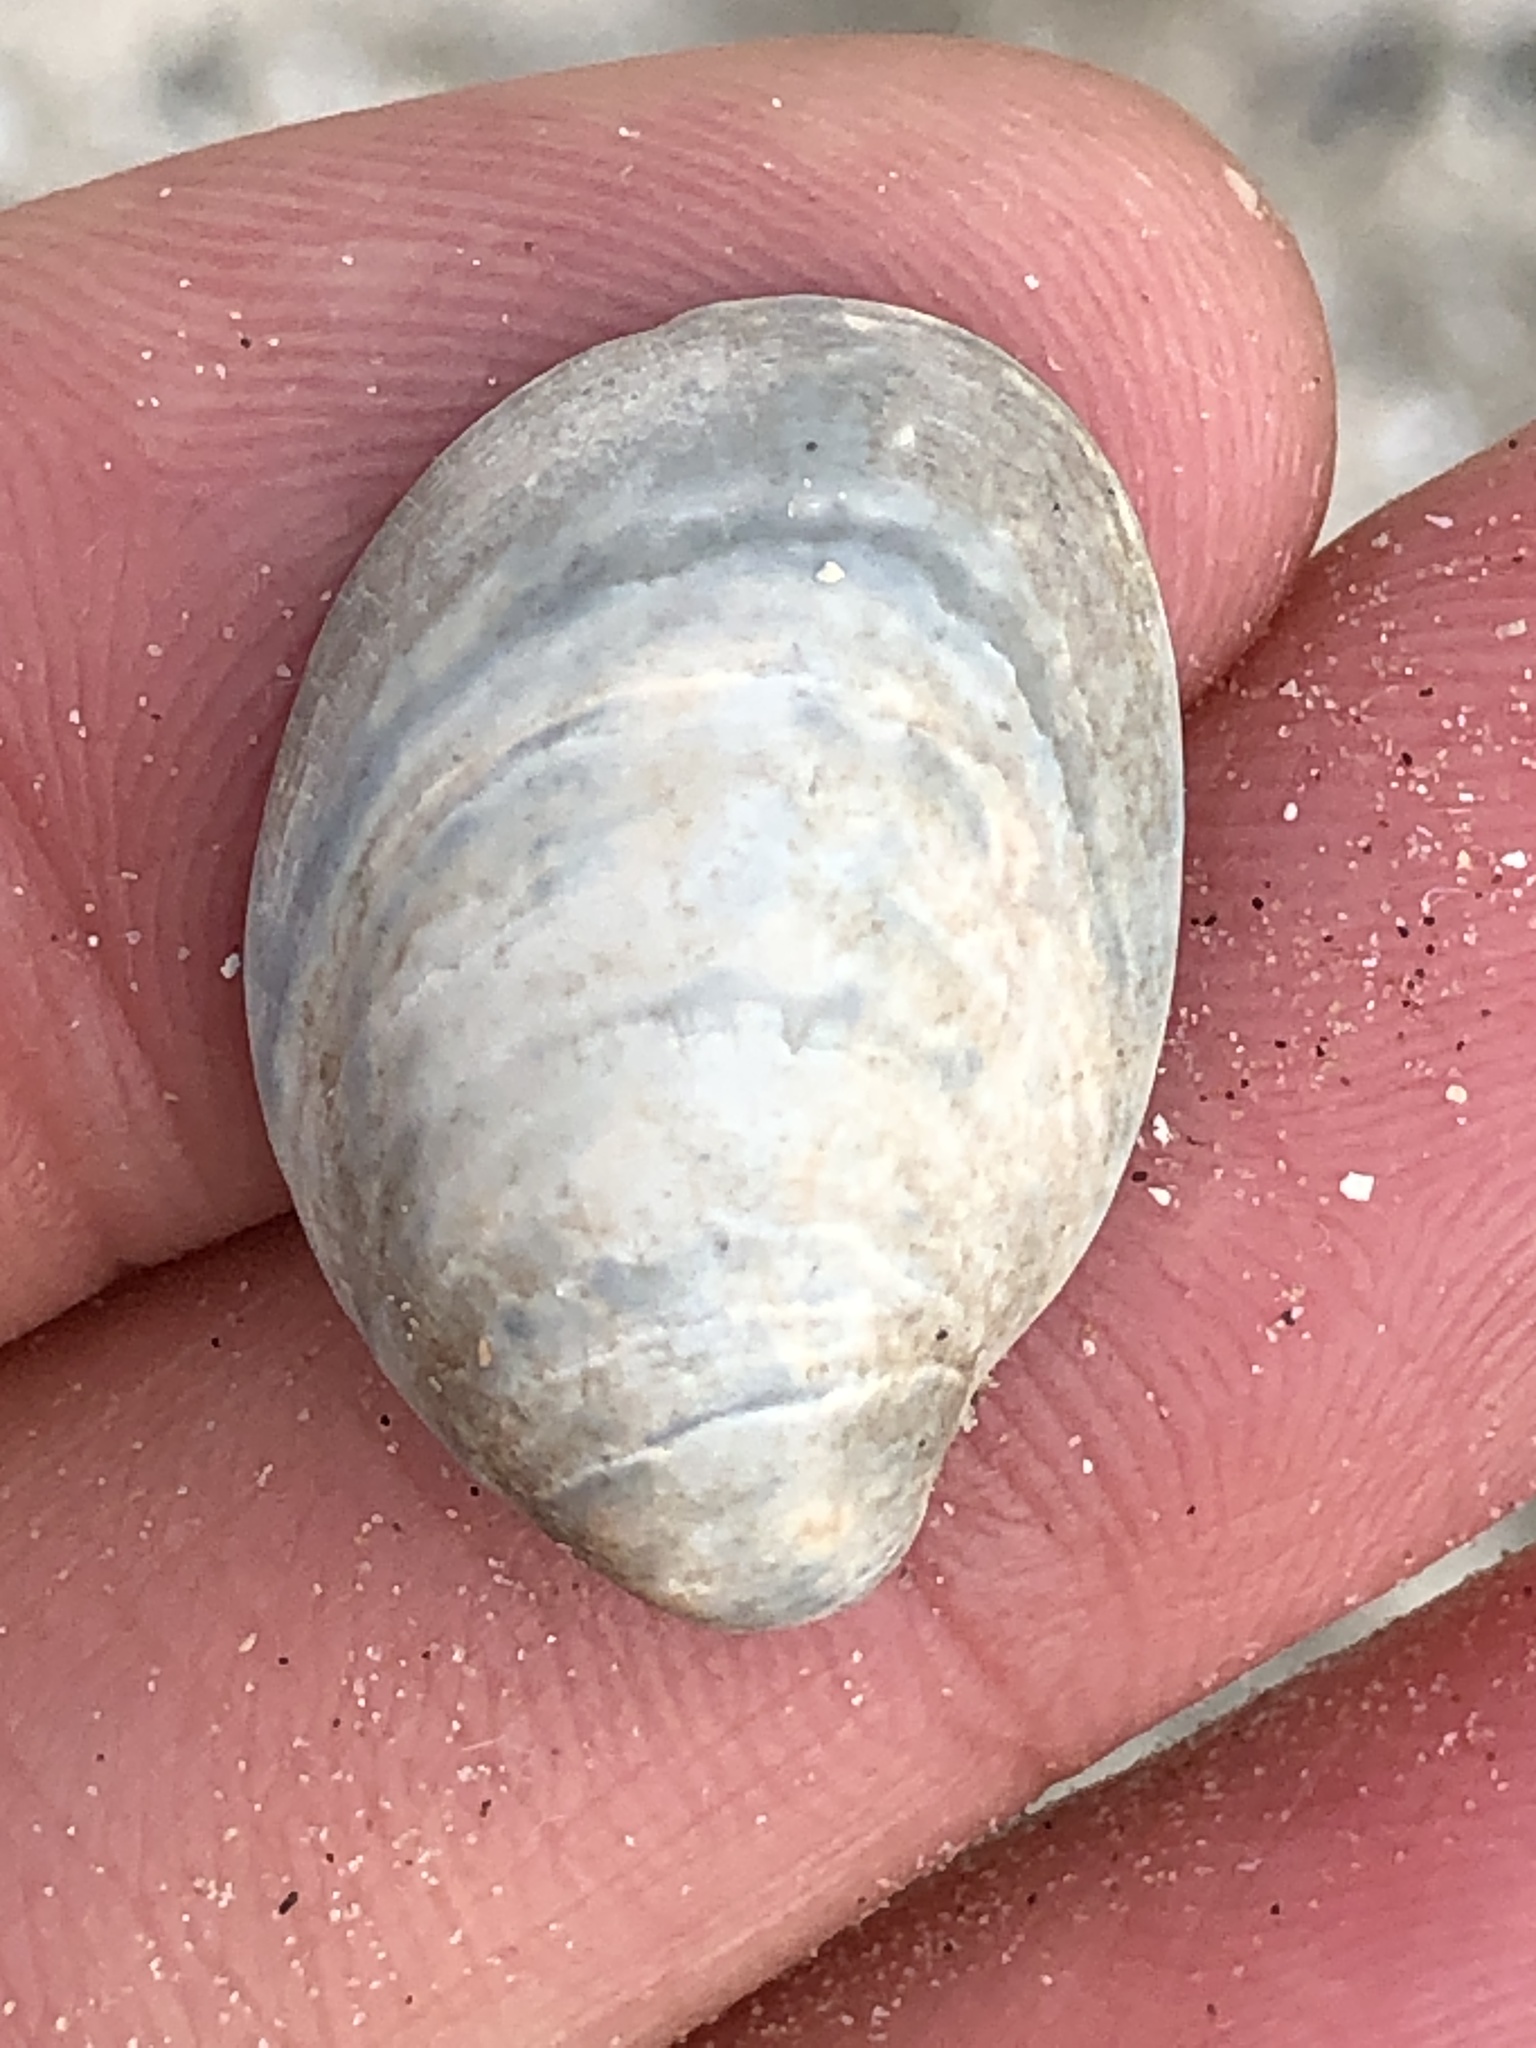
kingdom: Animalia
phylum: Mollusca
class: Gastropoda
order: Littorinimorpha
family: Calyptraeidae
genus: Crepidula
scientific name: Crepidula fornicata
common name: Slipper limpet
